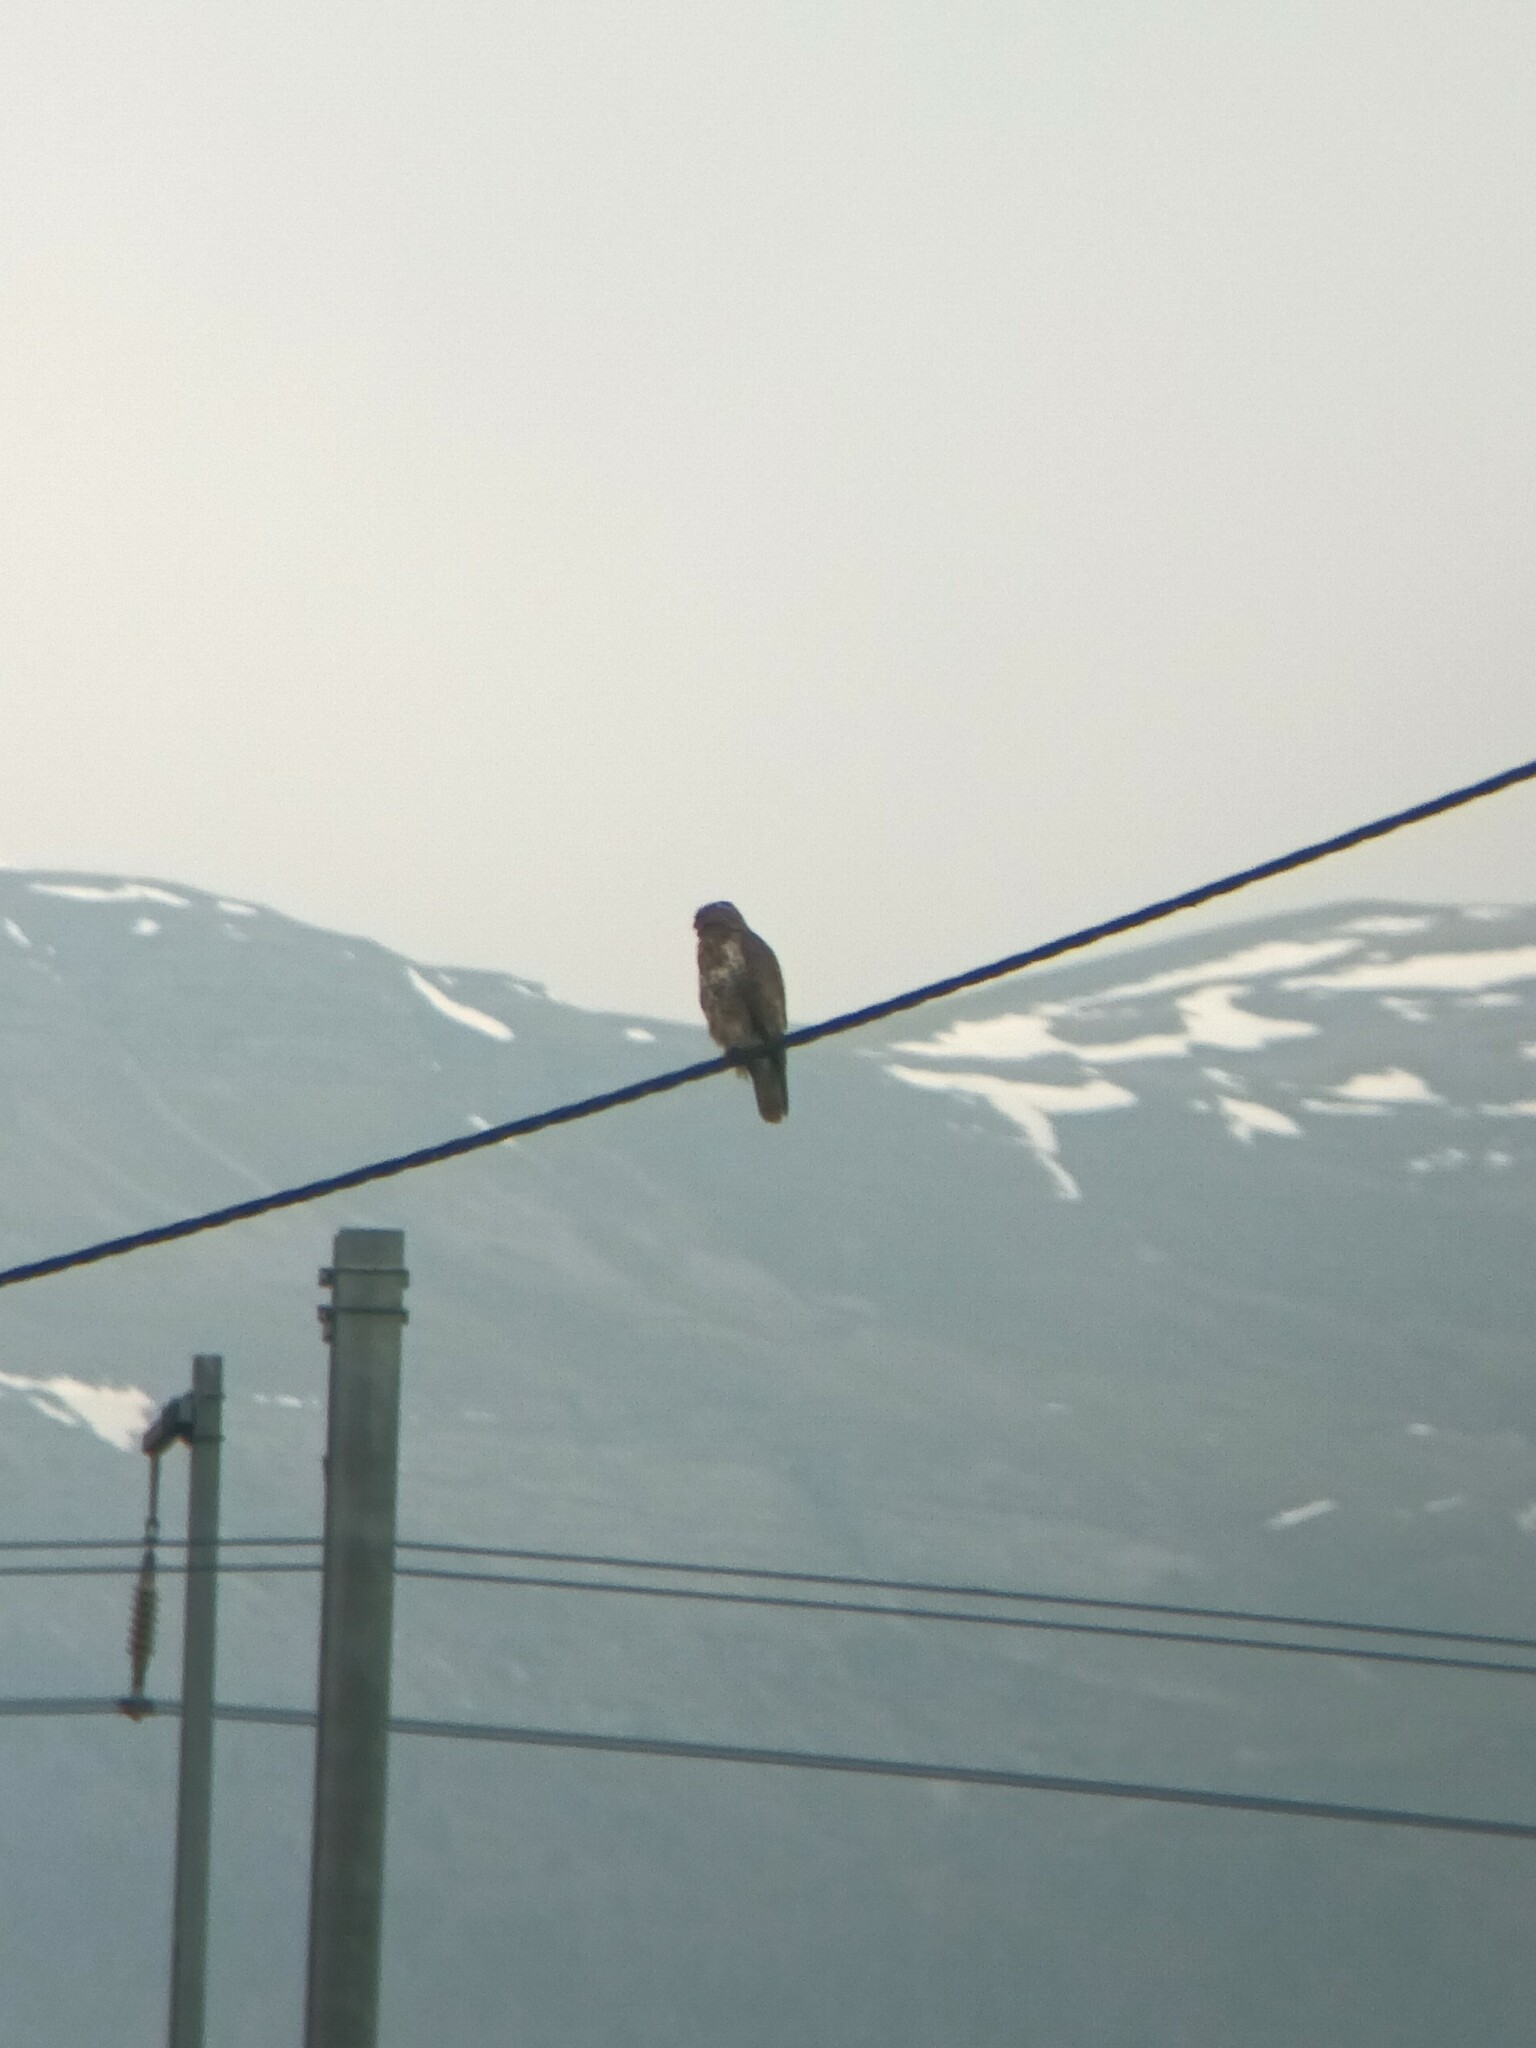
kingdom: Animalia
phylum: Chordata
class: Aves
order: Accipitriformes
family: Accipitridae
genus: Buteo
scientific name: Buteo buteo
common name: Common buzzard
